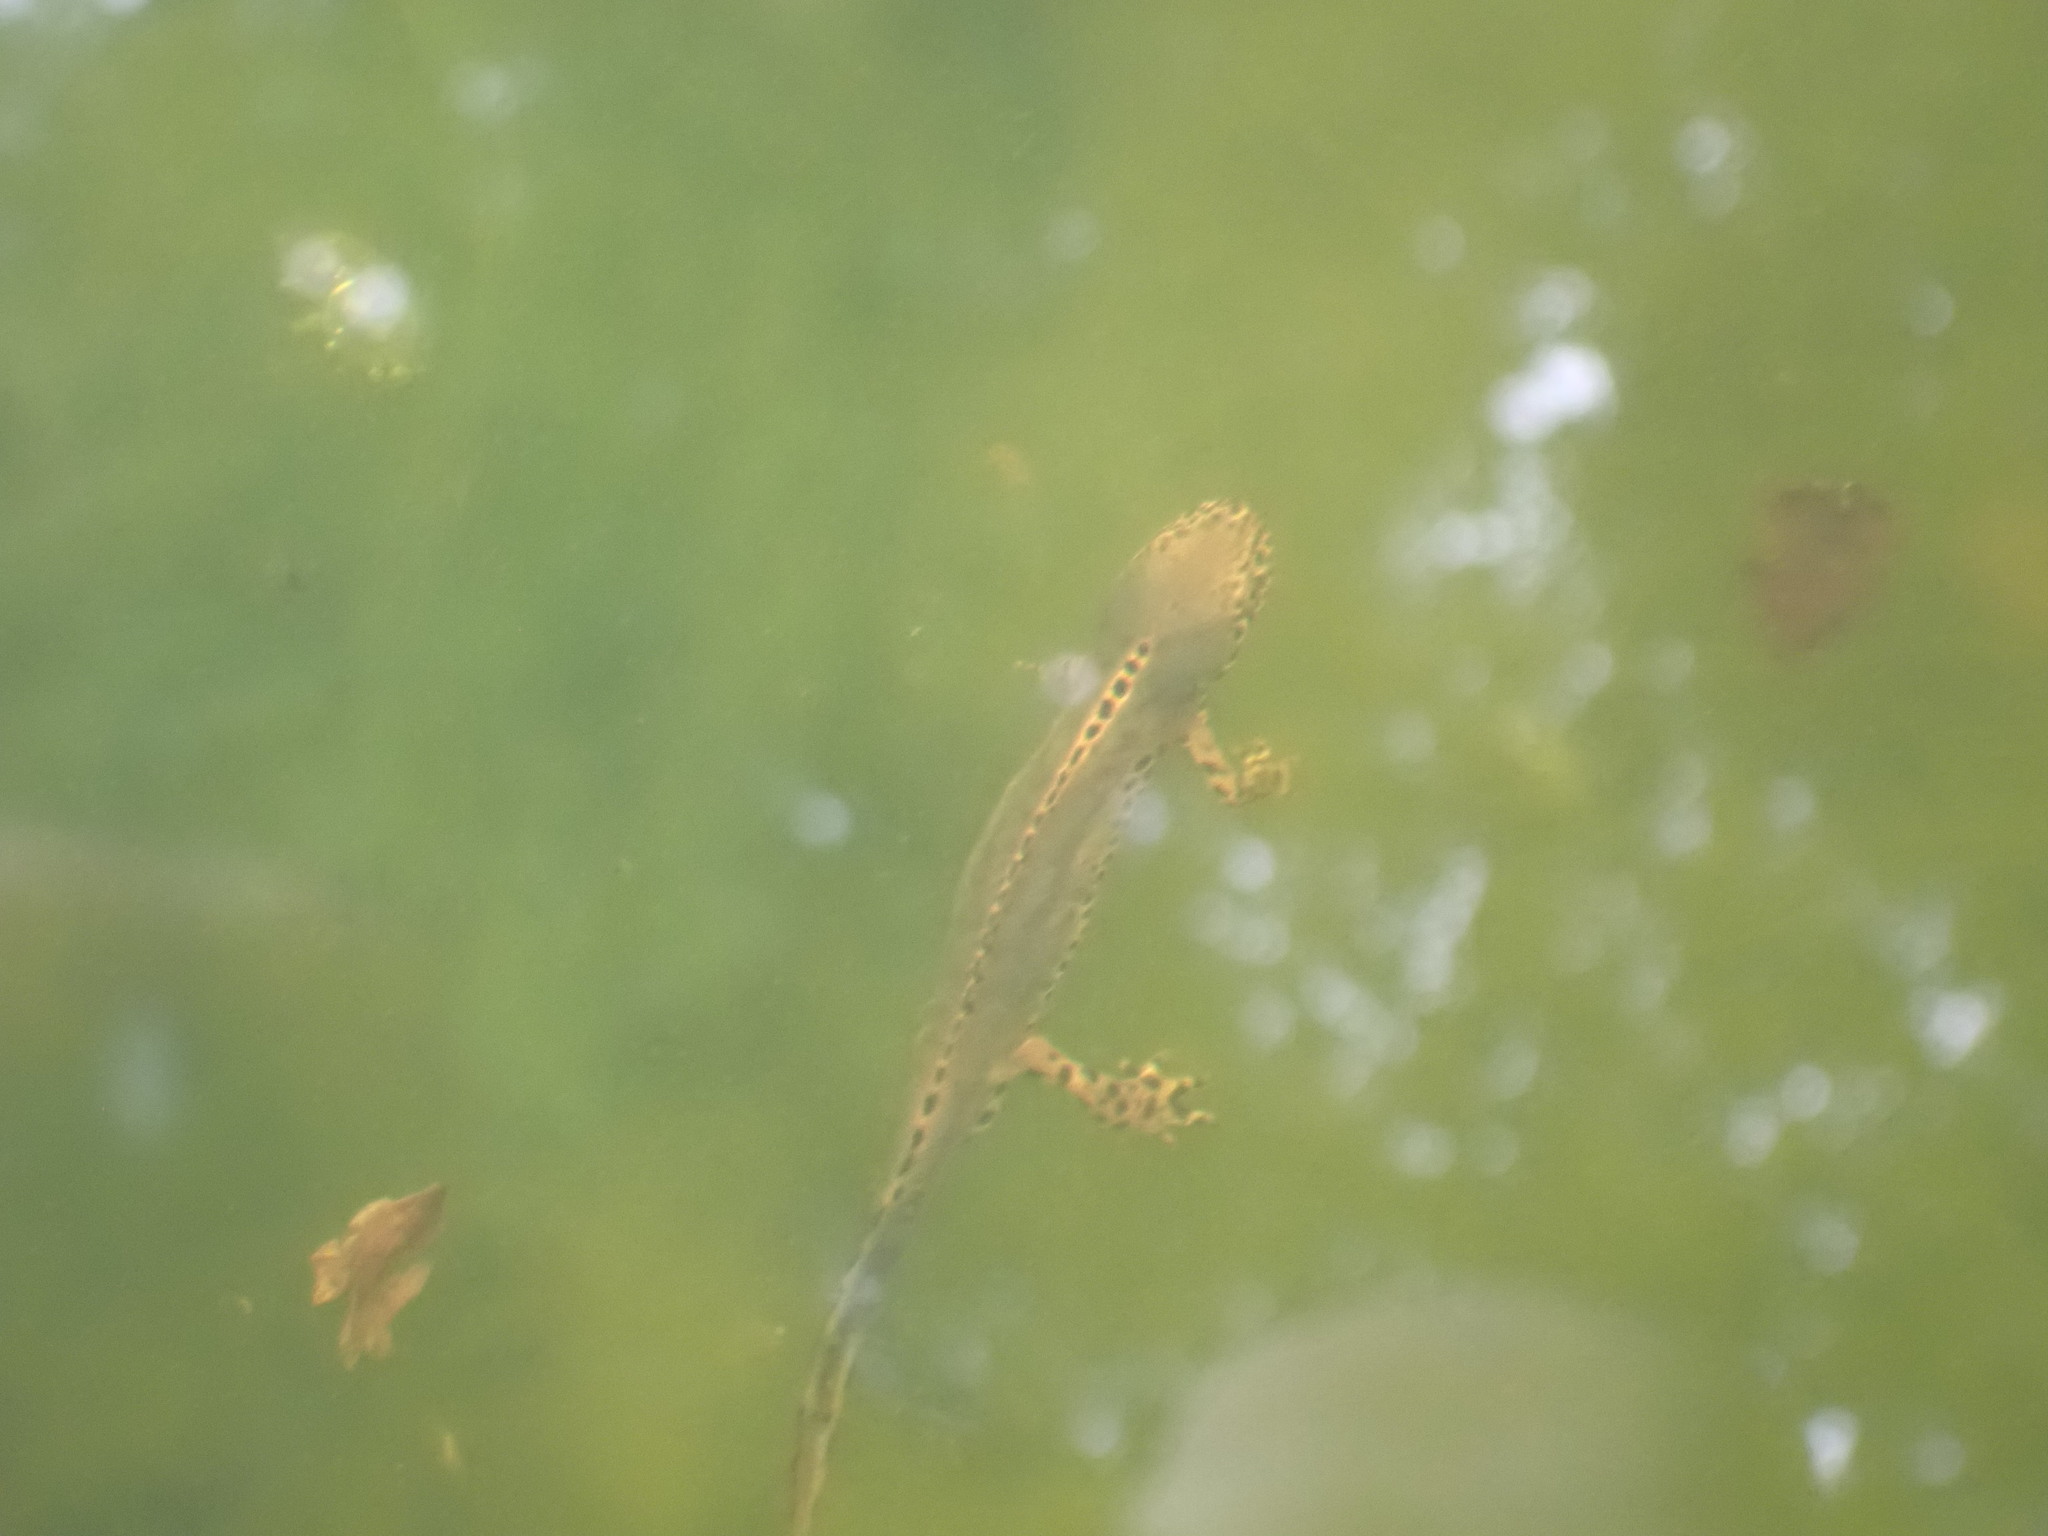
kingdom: Animalia
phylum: Chordata
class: Amphibia
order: Caudata
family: Salamandridae
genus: Ichthyosaura
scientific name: Ichthyosaura alpestris
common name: Alpine newt
